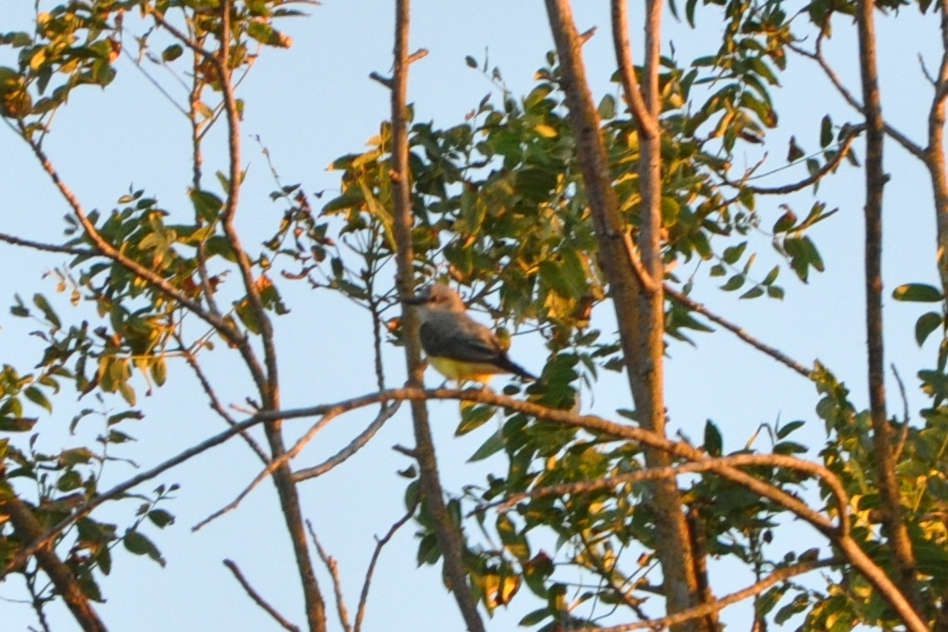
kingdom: Animalia
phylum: Chordata
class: Aves
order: Passeriformes
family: Tyrannidae
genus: Tyrannus
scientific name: Tyrannus verticalis
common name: Western kingbird
